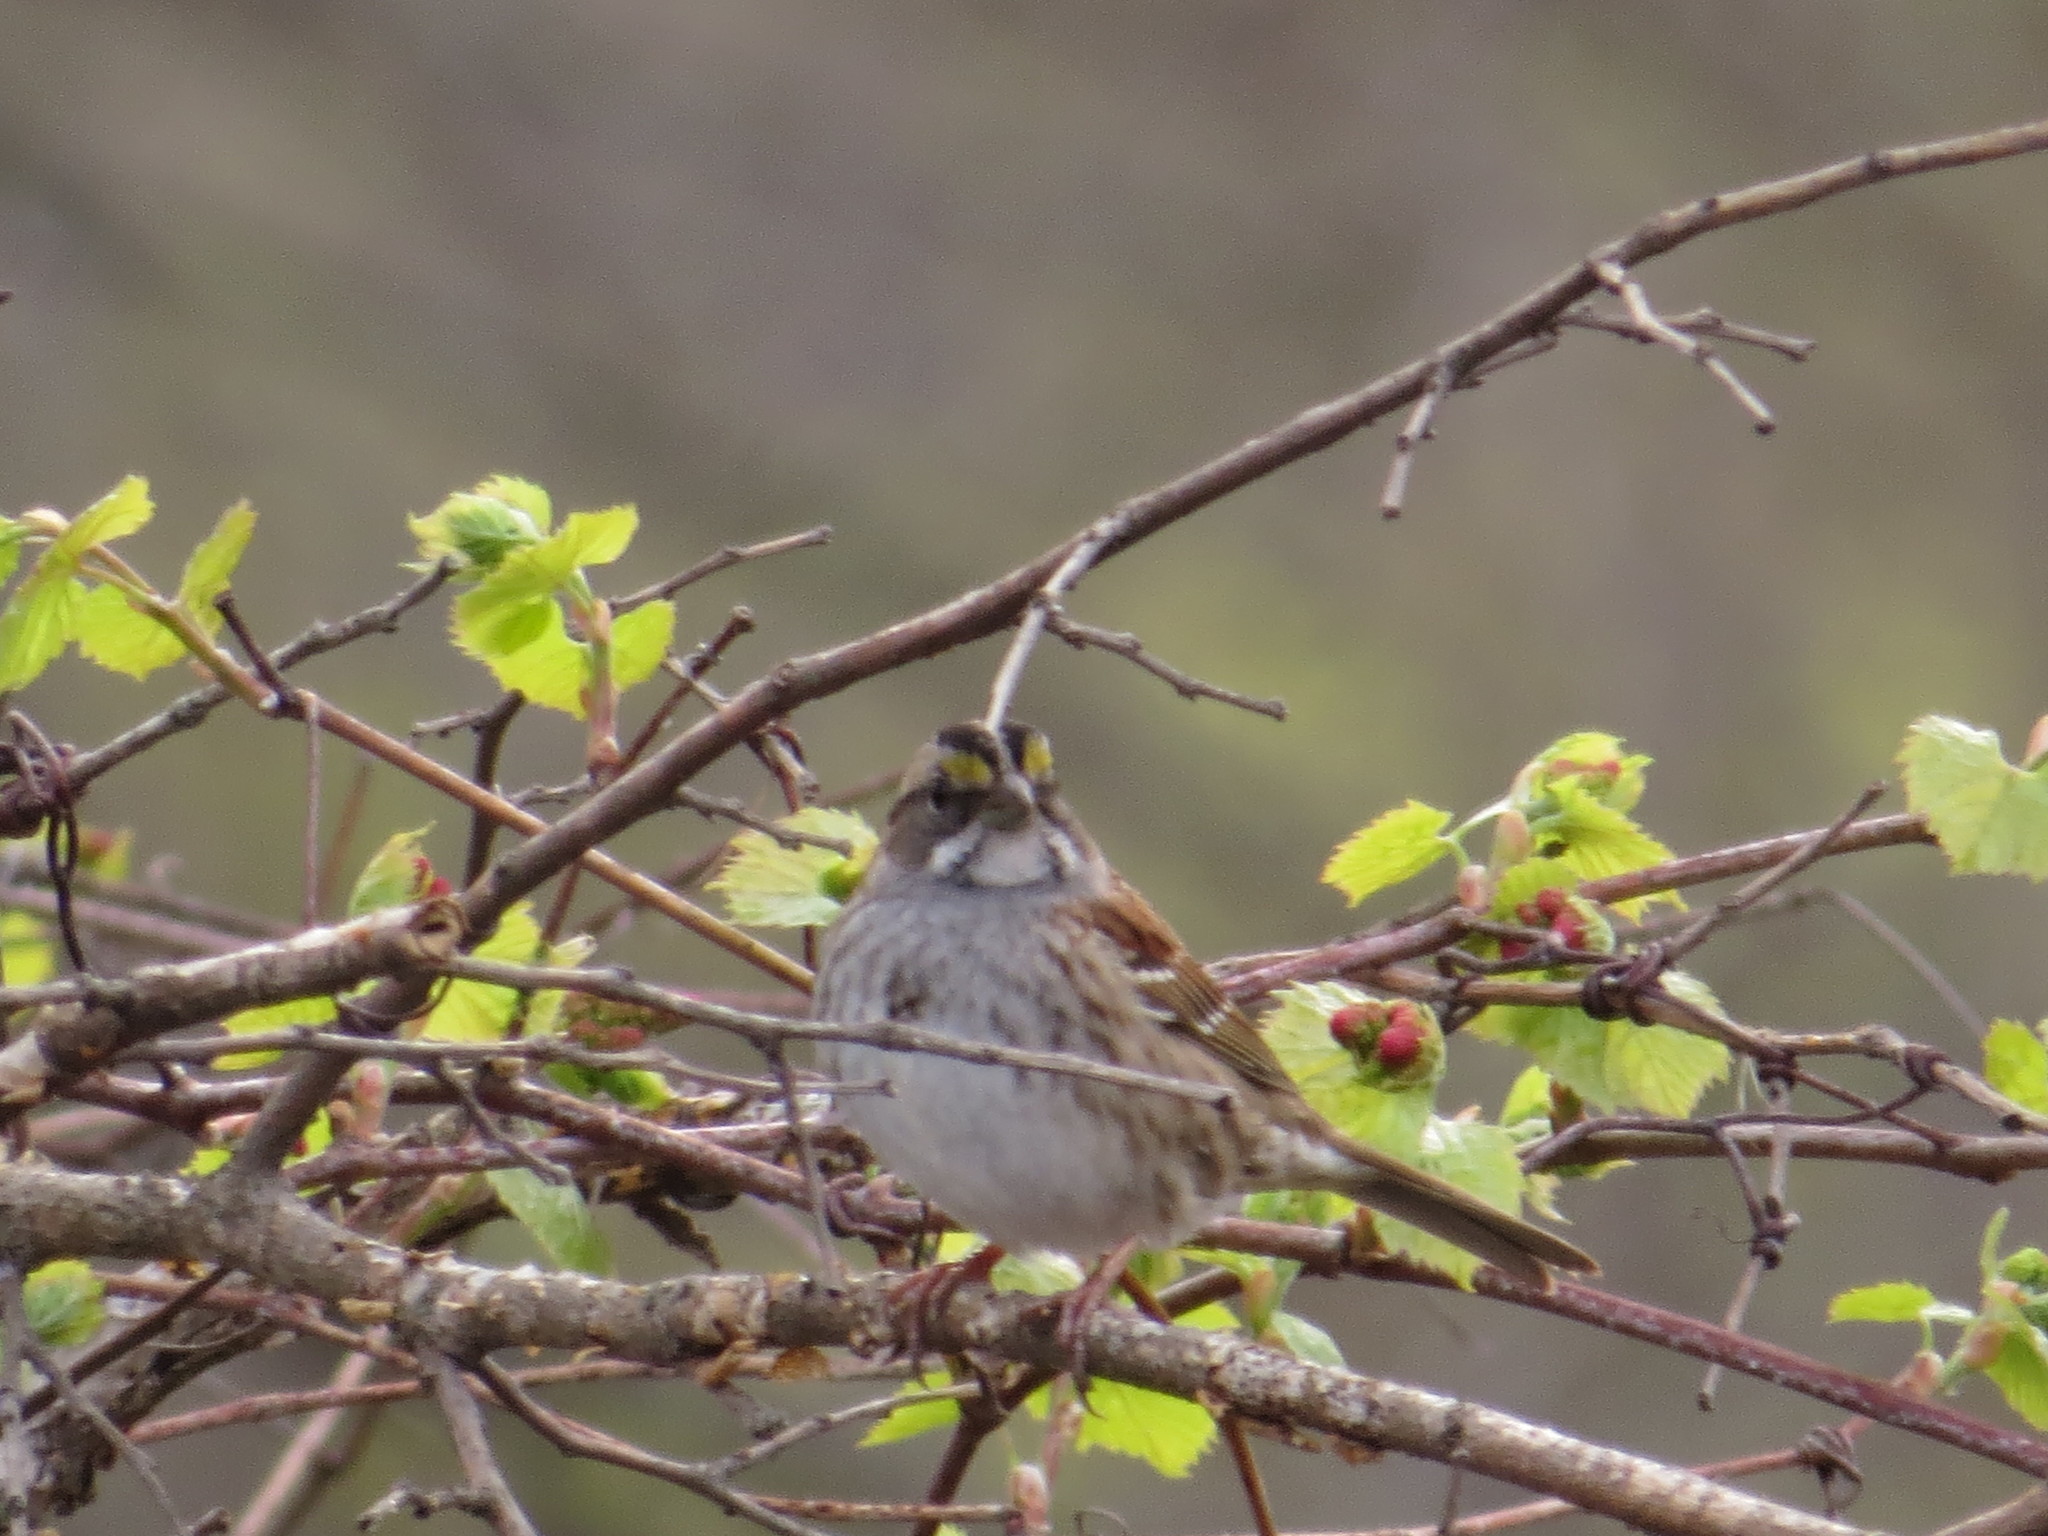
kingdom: Animalia
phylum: Chordata
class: Aves
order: Passeriformes
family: Passerellidae
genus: Zonotrichia
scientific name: Zonotrichia albicollis
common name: White-throated sparrow
